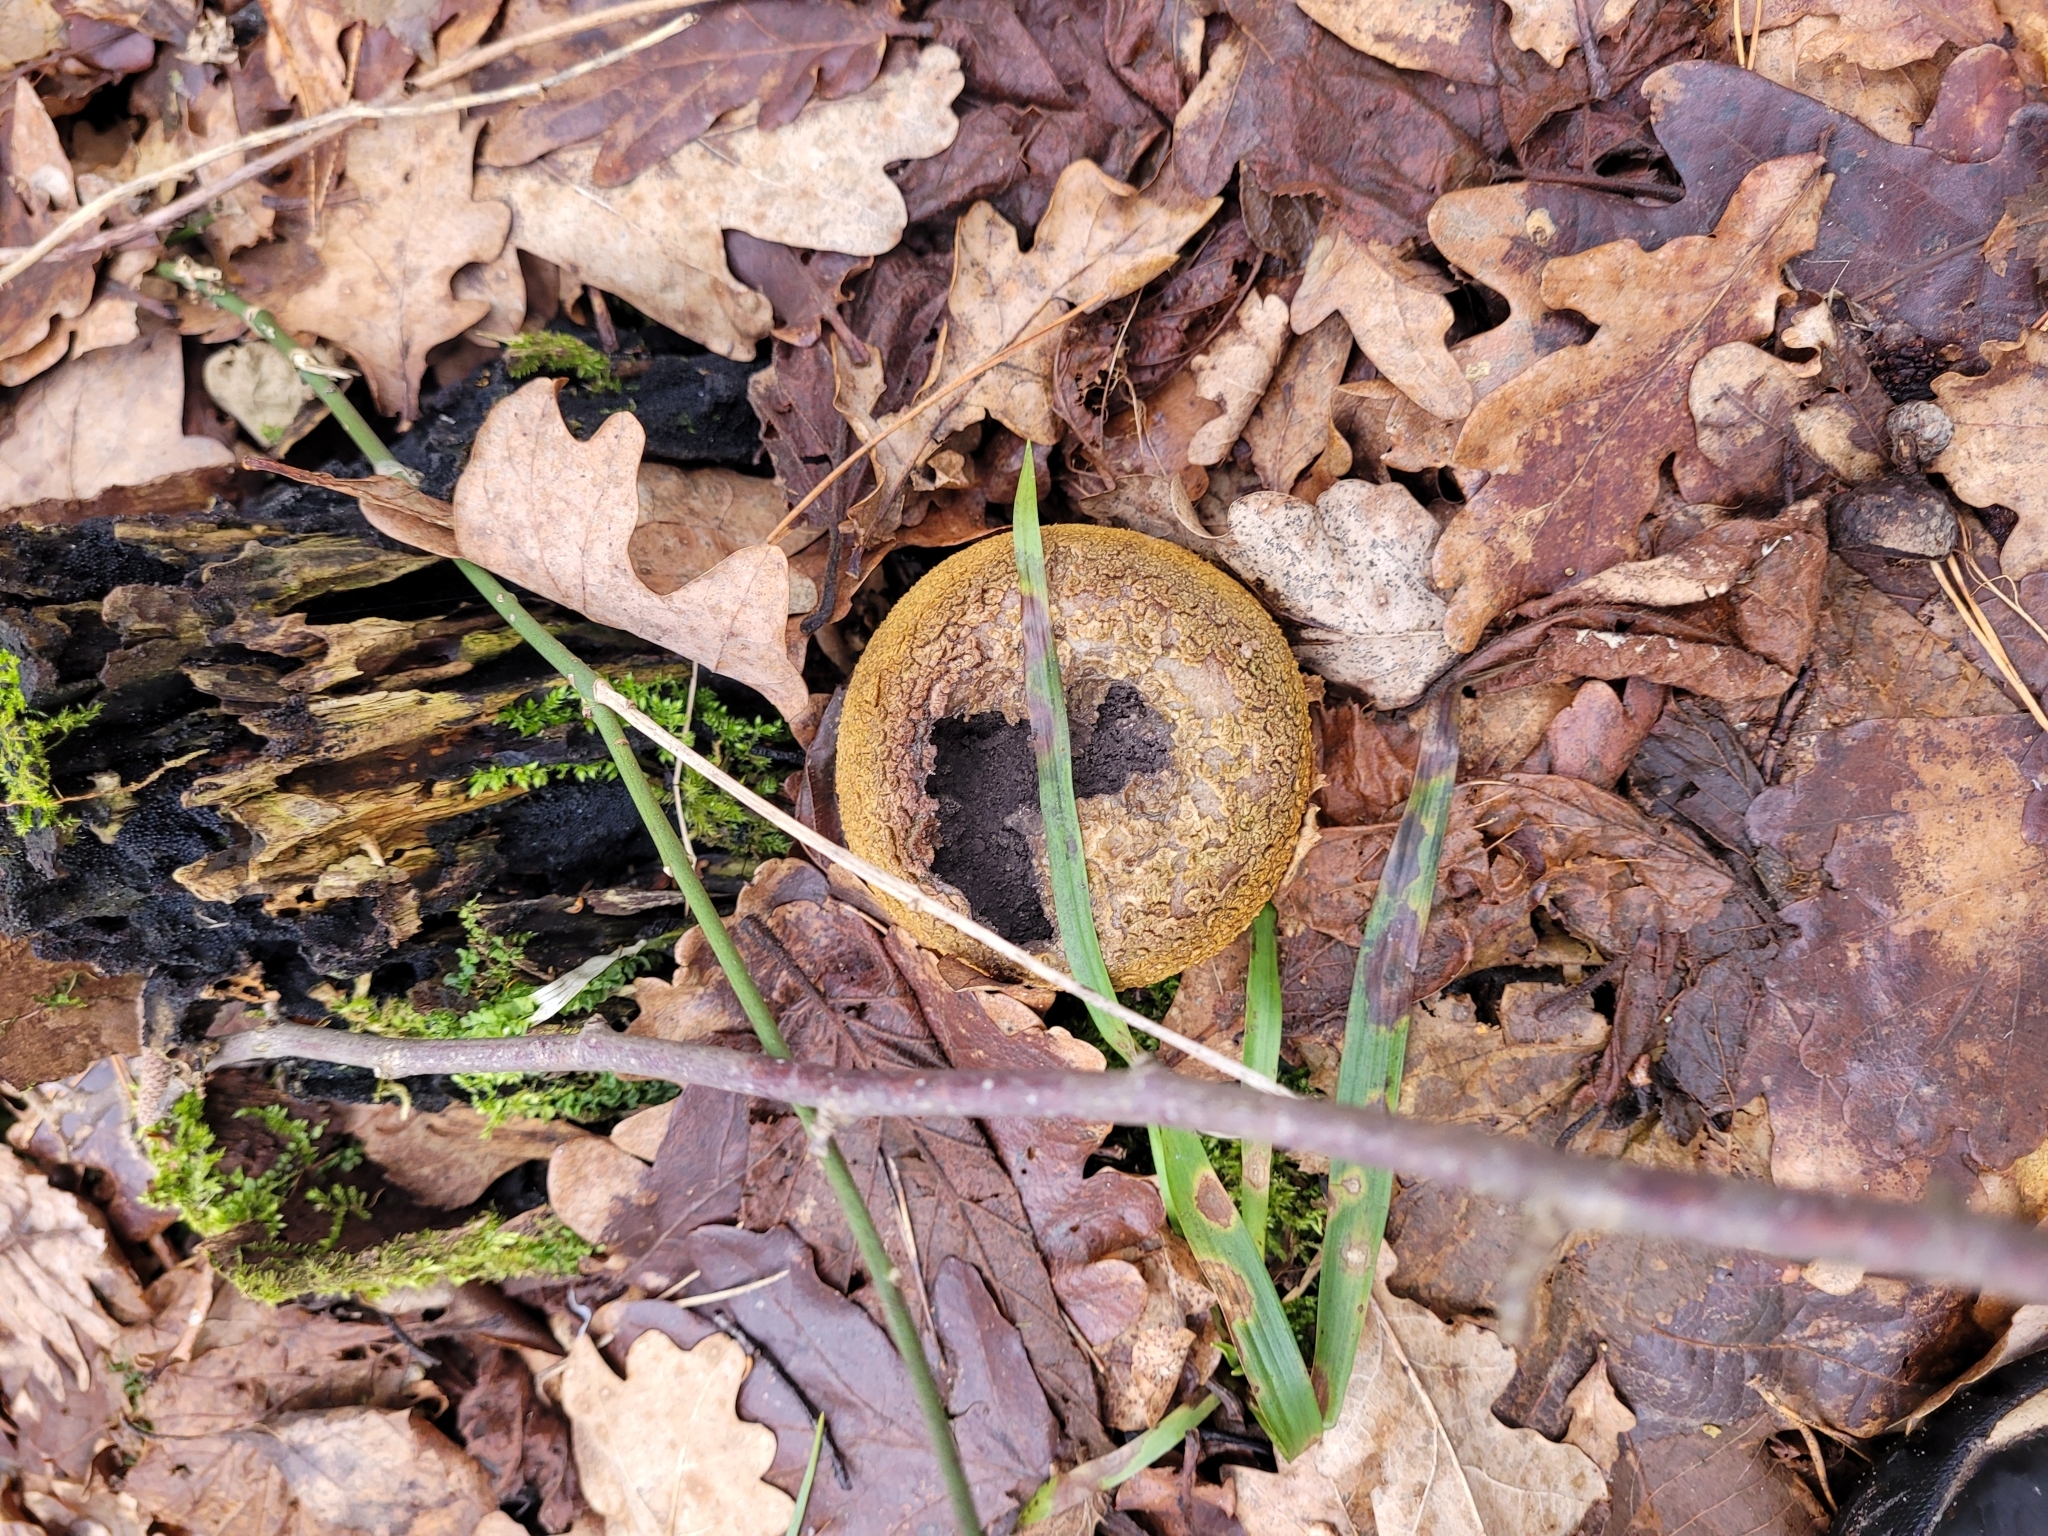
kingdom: Fungi
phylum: Basidiomycota
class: Agaricomycetes
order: Boletales
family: Sclerodermataceae
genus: Scleroderma
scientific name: Scleroderma citrinum
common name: Common earthball
